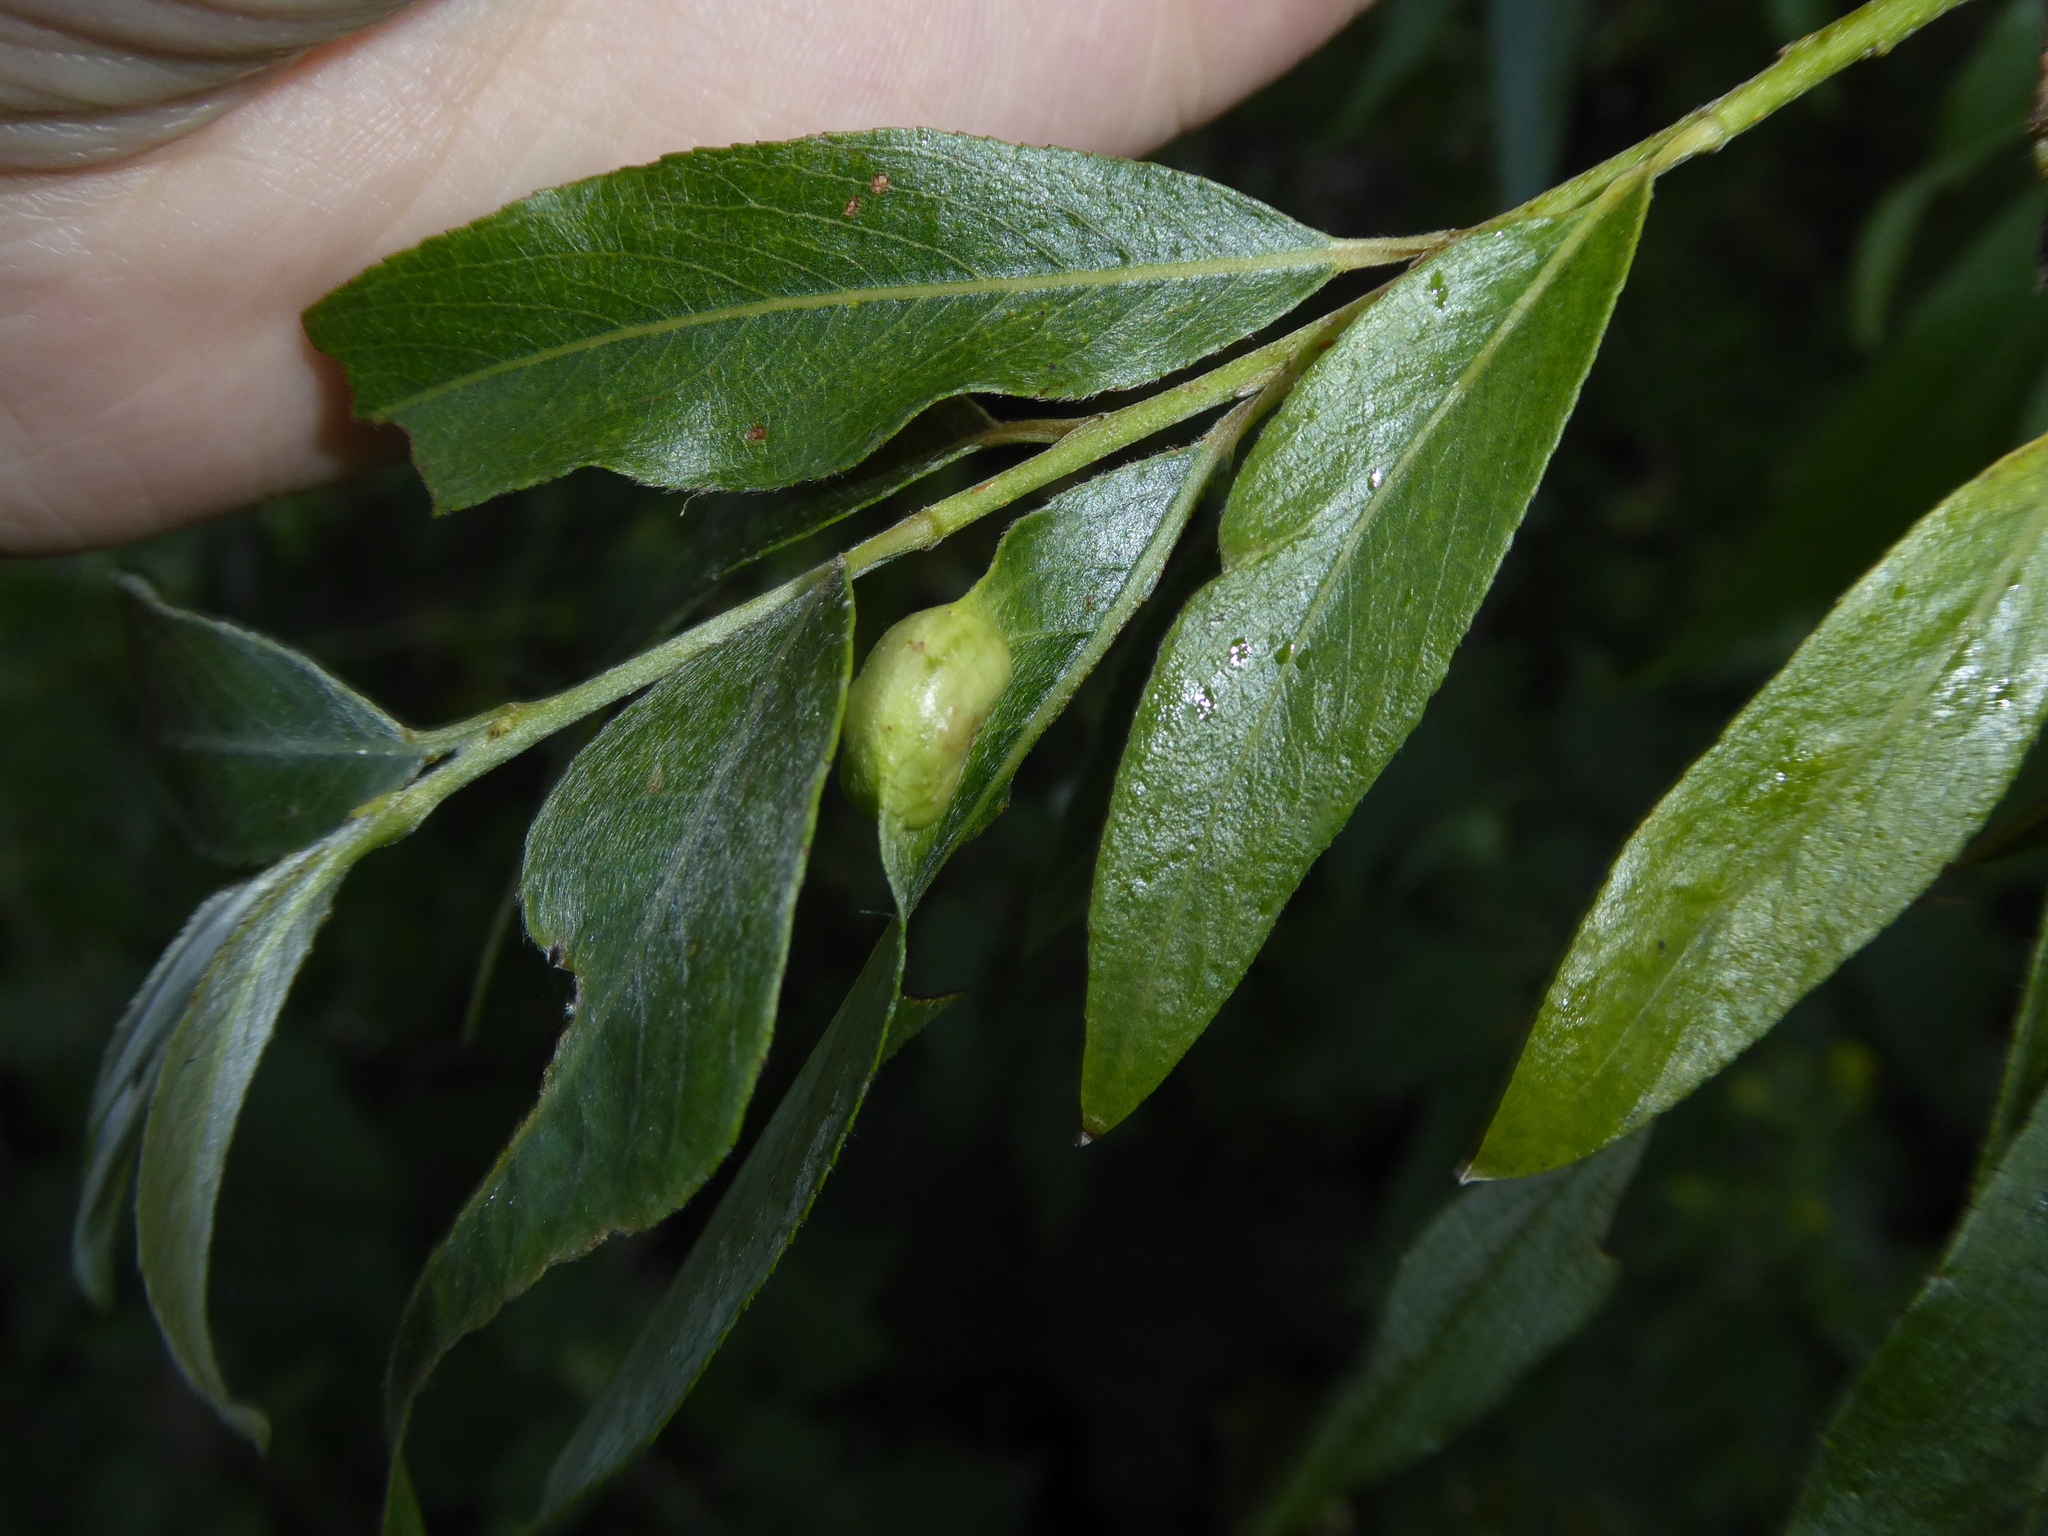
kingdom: Animalia
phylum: Arthropoda
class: Insecta
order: Hymenoptera
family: Tenthredinidae
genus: Pontania
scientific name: Pontania proxima
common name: Common sawfly
